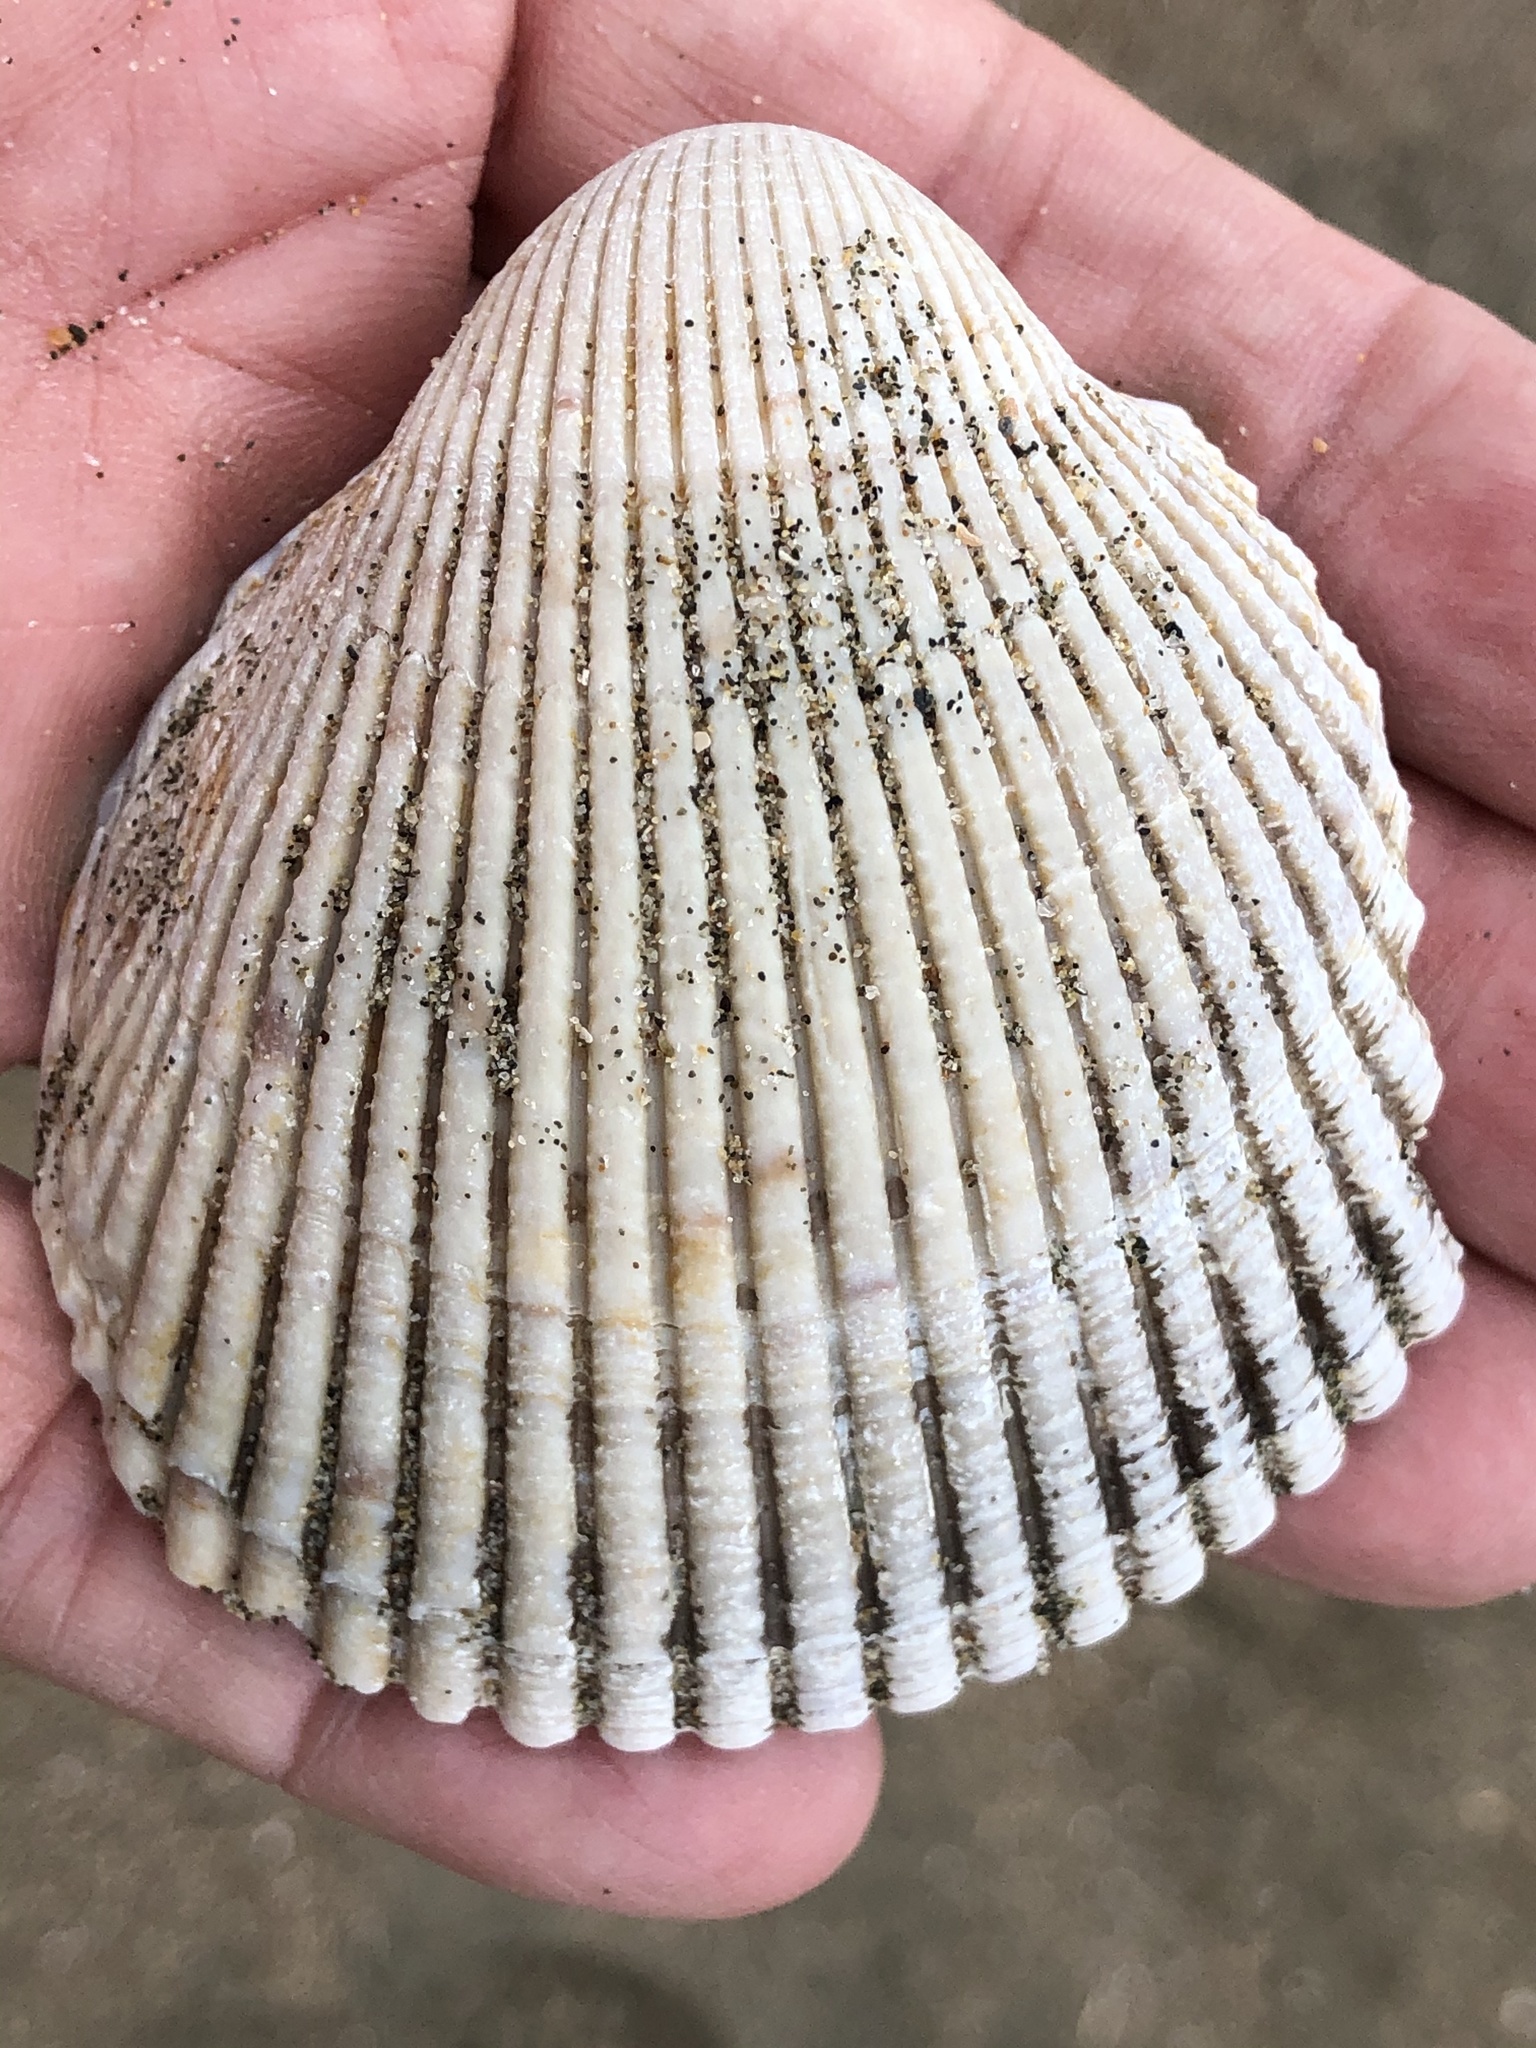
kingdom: Animalia
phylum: Mollusca
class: Bivalvia
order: Cardiida
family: Cardiidae
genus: Clinocardium
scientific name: Clinocardium nuttallii
